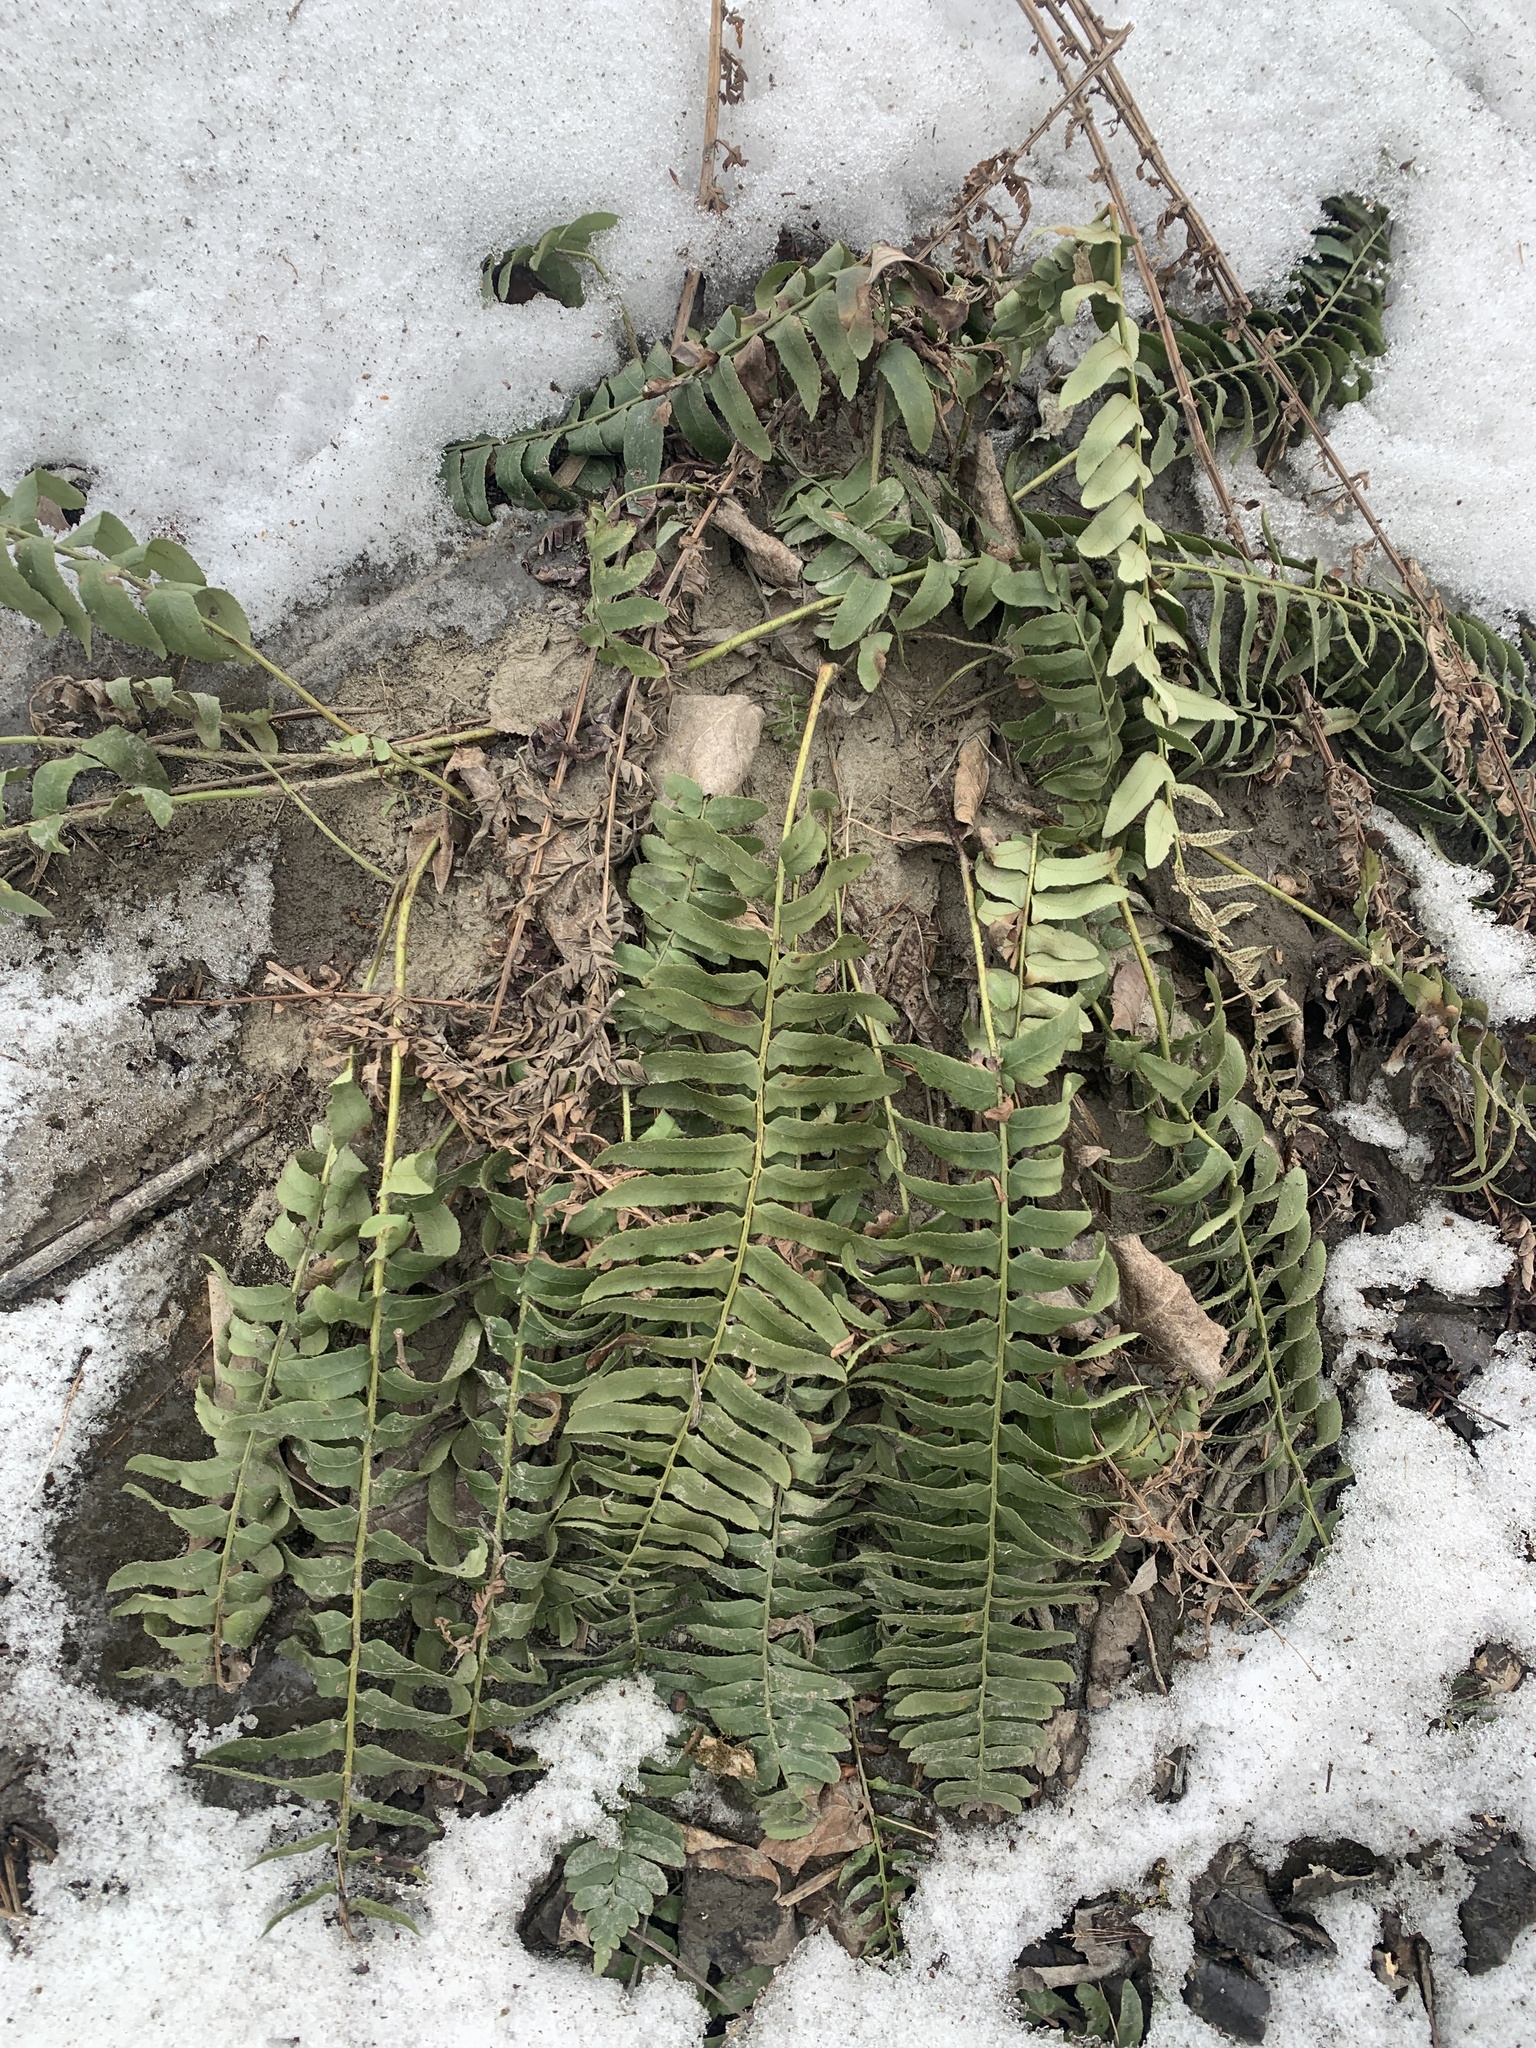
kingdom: Plantae
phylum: Tracheophyta
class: Polypodiopsida
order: Polypodiales
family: Dryopteridaceae
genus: Polystichum
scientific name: Polystichum acrostichoides
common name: Christmas fern
